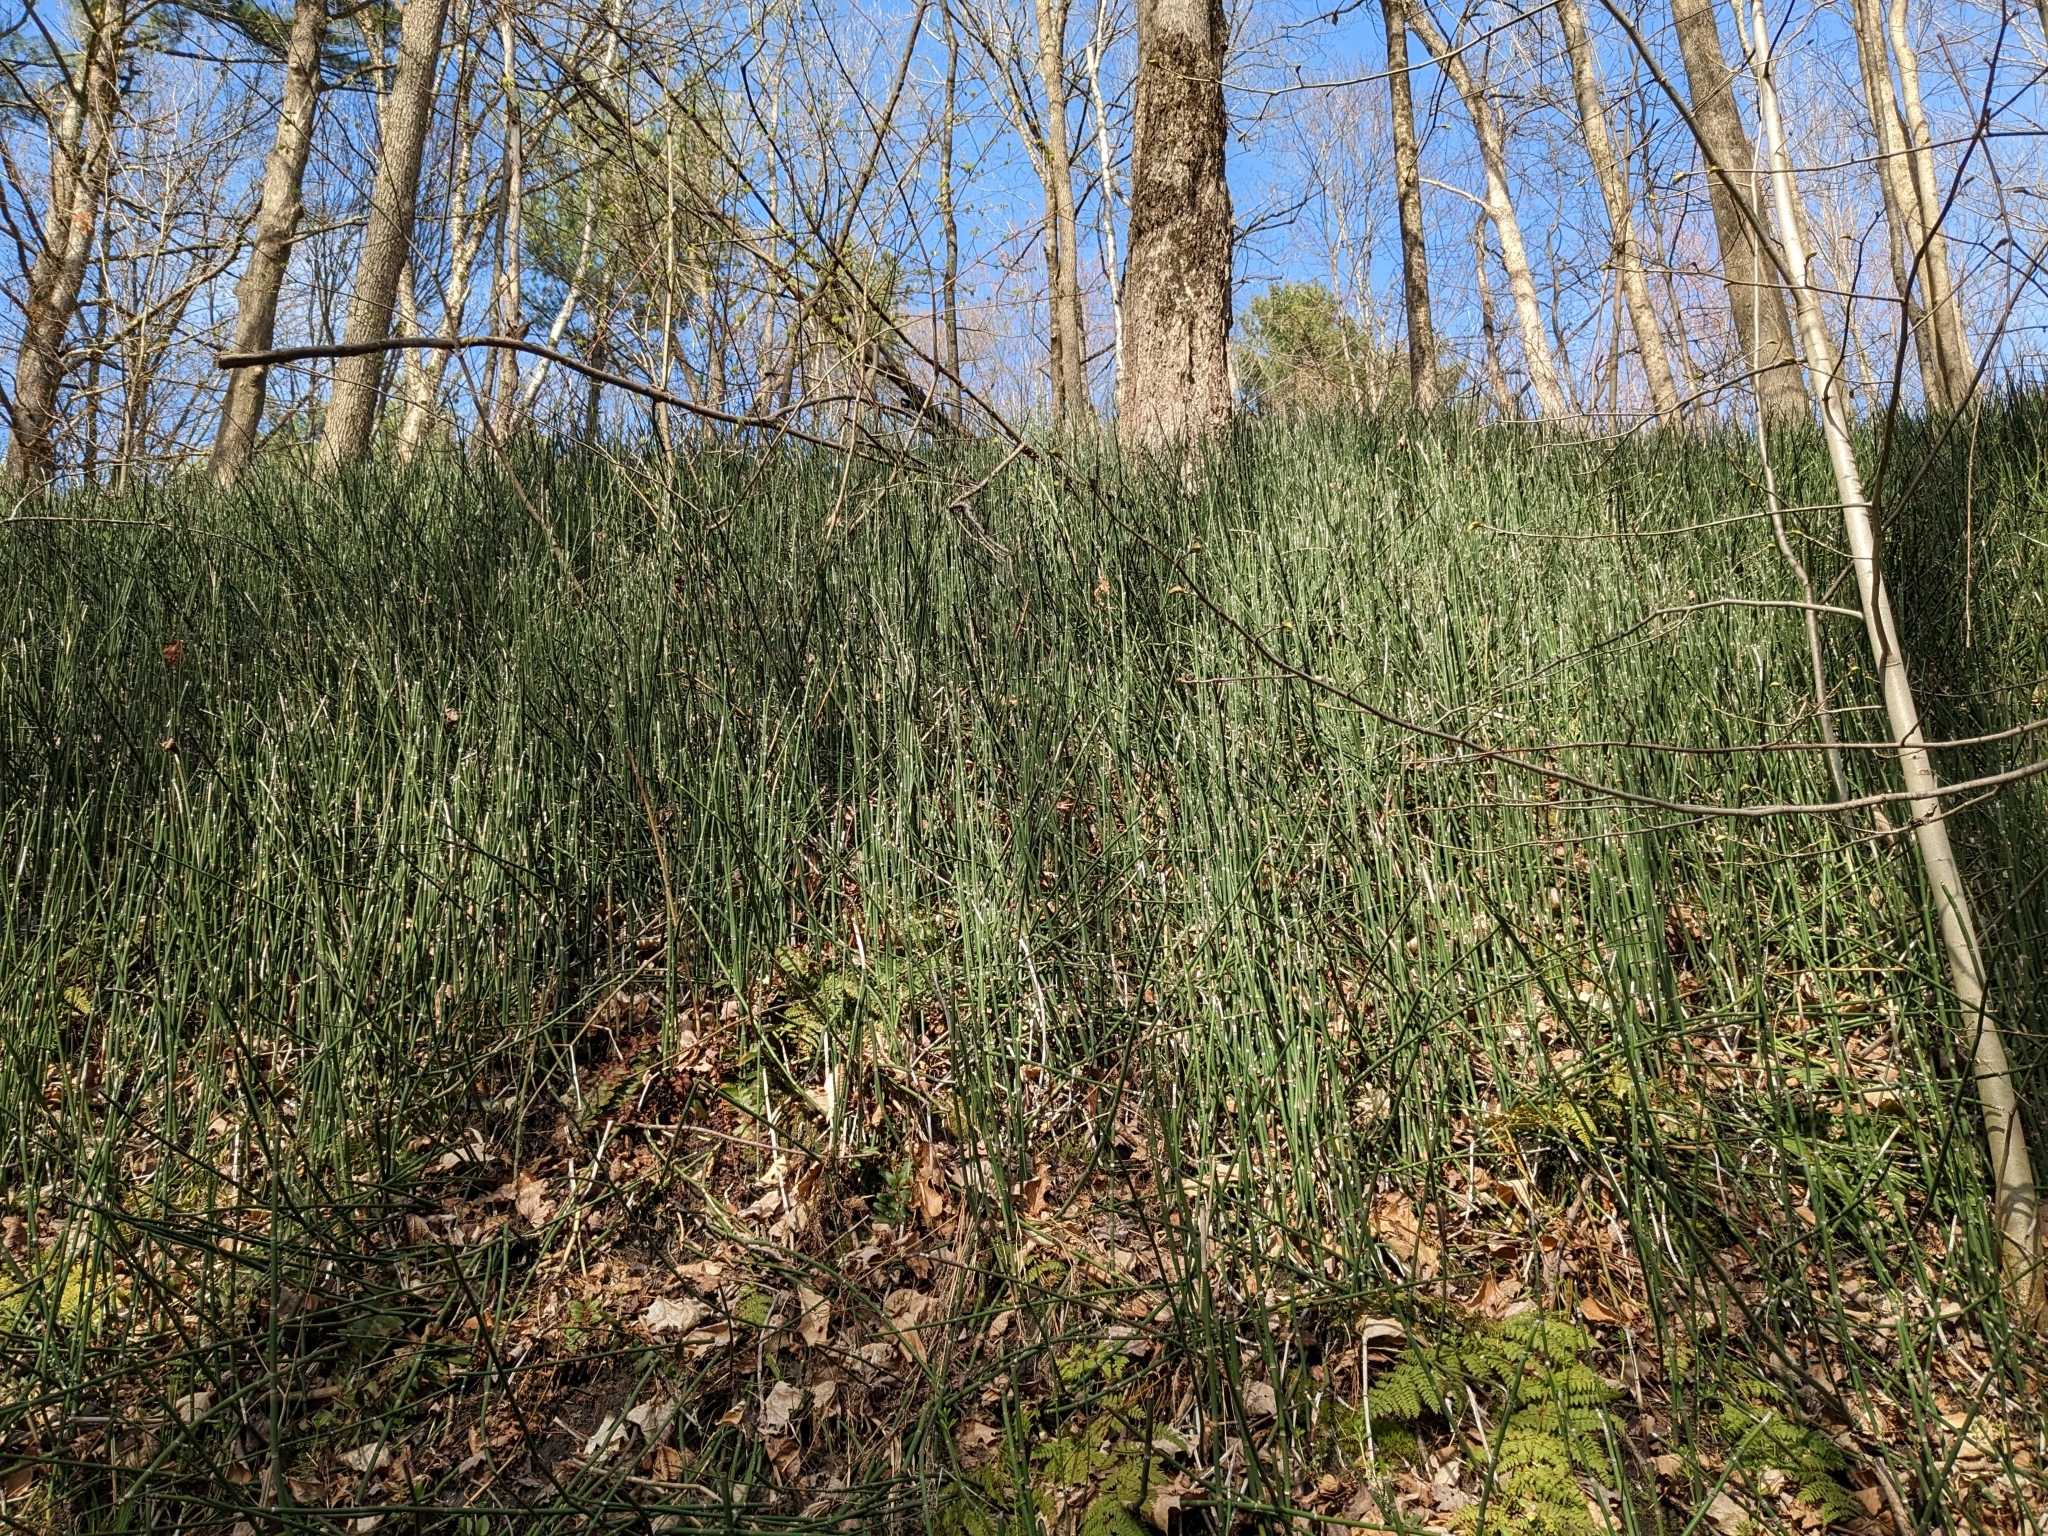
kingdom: Plantae
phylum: Tracheophyta
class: Polypodiopsida
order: Equisetales
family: Equisetaceae
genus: Equisetum
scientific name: Equisetum hyemale
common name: Rough horsetail
